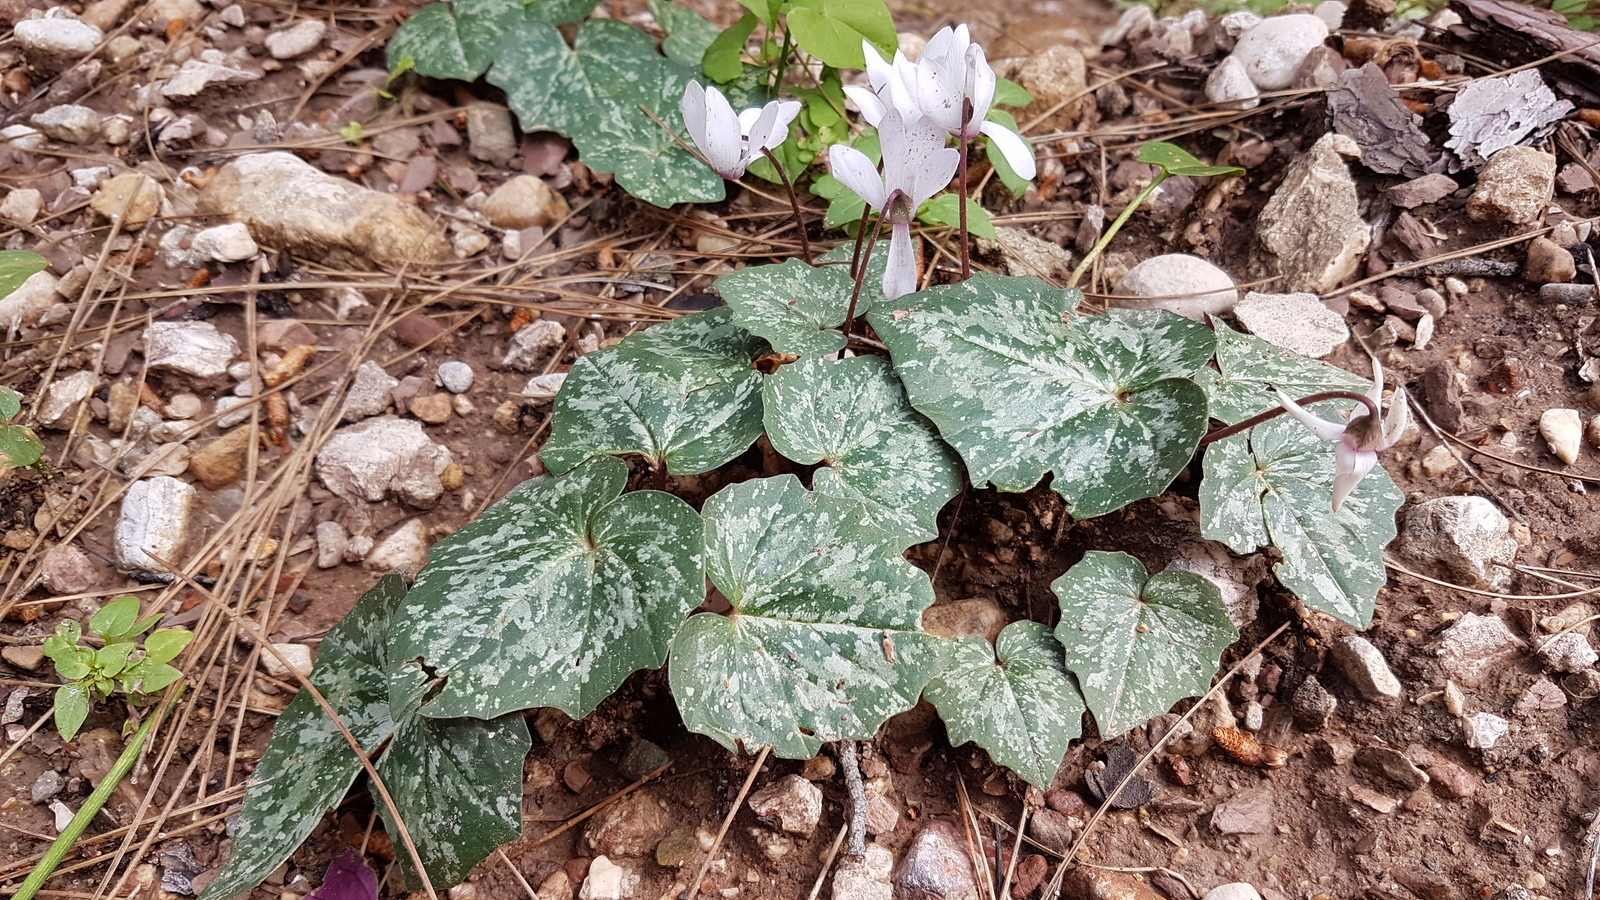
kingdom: Plantae
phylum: Tracheophyta
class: Magnoliopsida
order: Ericales
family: Primulaceae
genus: Cyclamen
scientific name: Cyclamen repandum
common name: Spring sowbread
